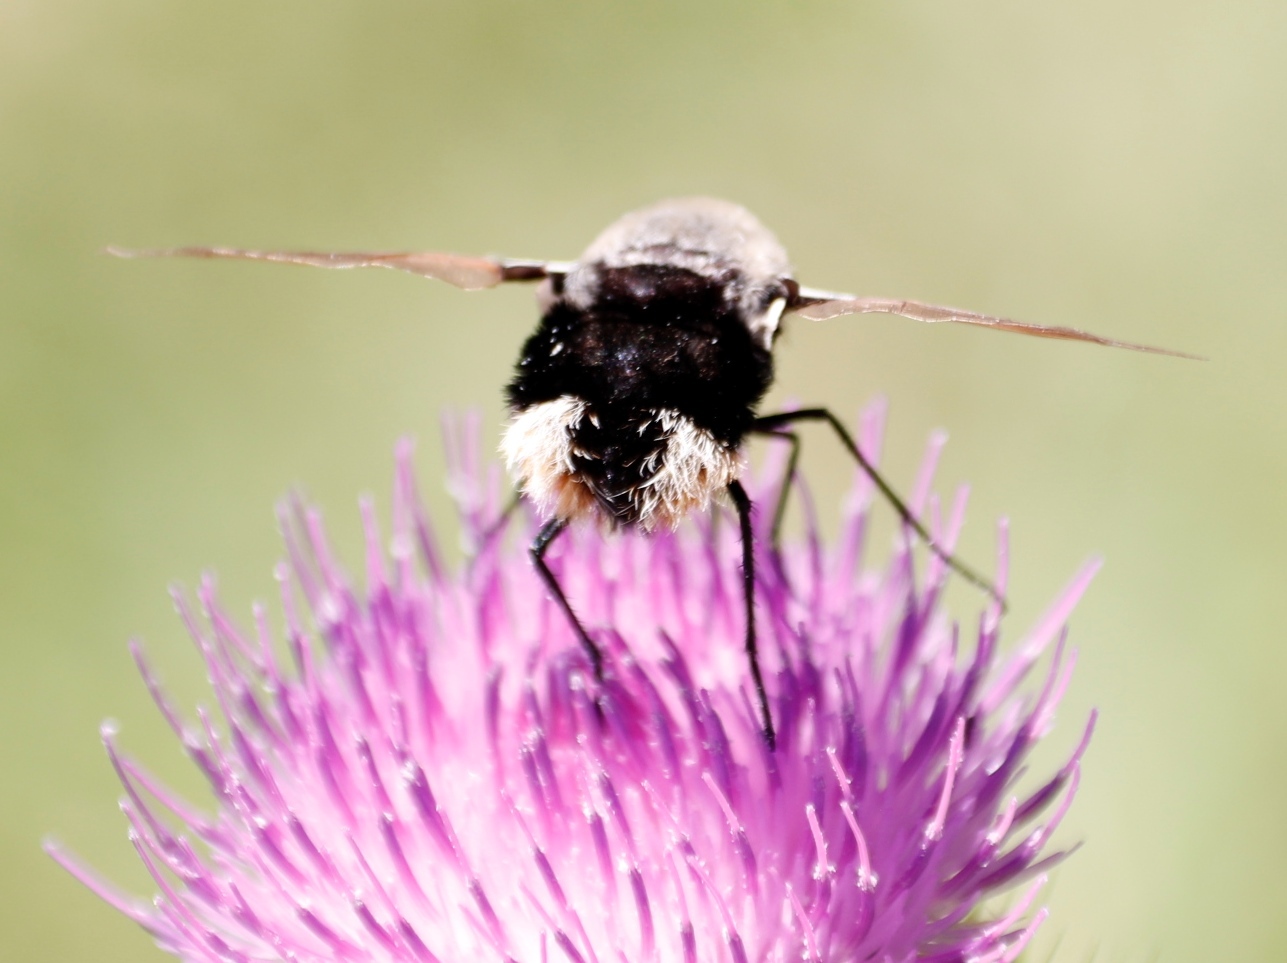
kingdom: Animalia
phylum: Arthropoda
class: Insecta
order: Diptera
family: Bombyliidae
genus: Bombomyia
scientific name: Bombomyia discoidea
